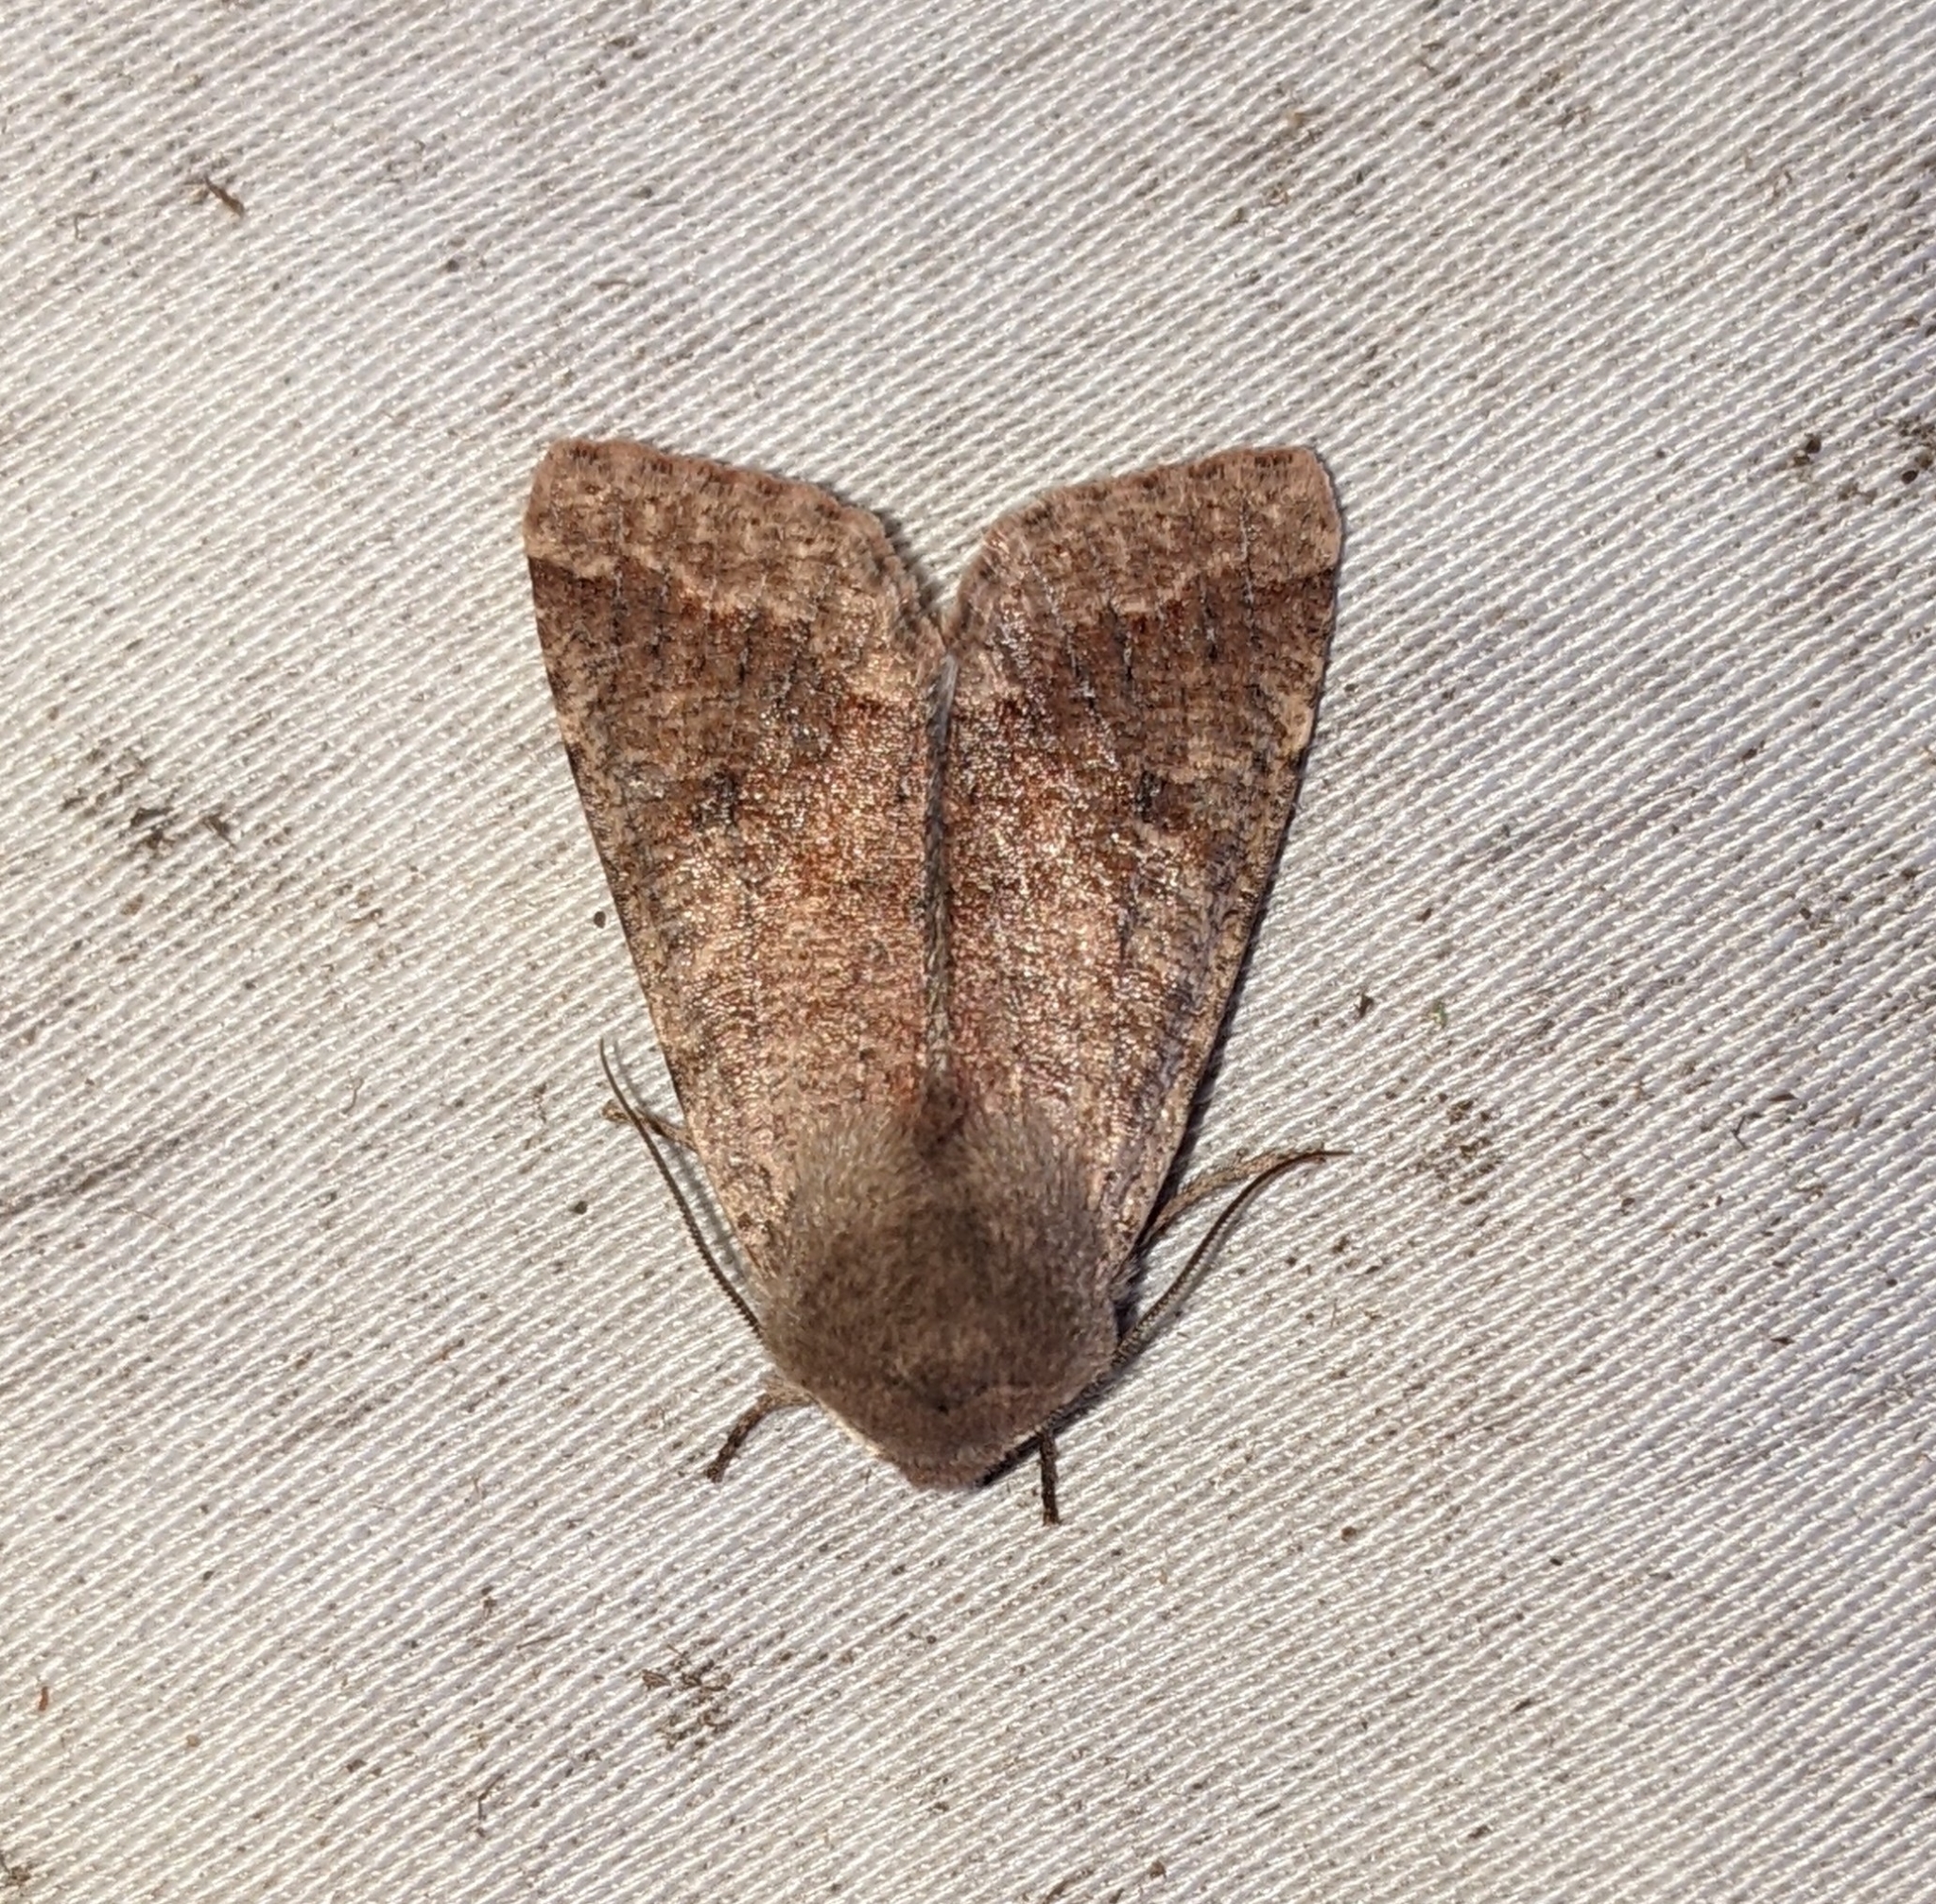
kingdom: Animalia
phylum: Arthropoda
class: Insecta
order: Lepidoptera
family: Noctuidae
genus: Orthosia
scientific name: Orthosia pacifica
